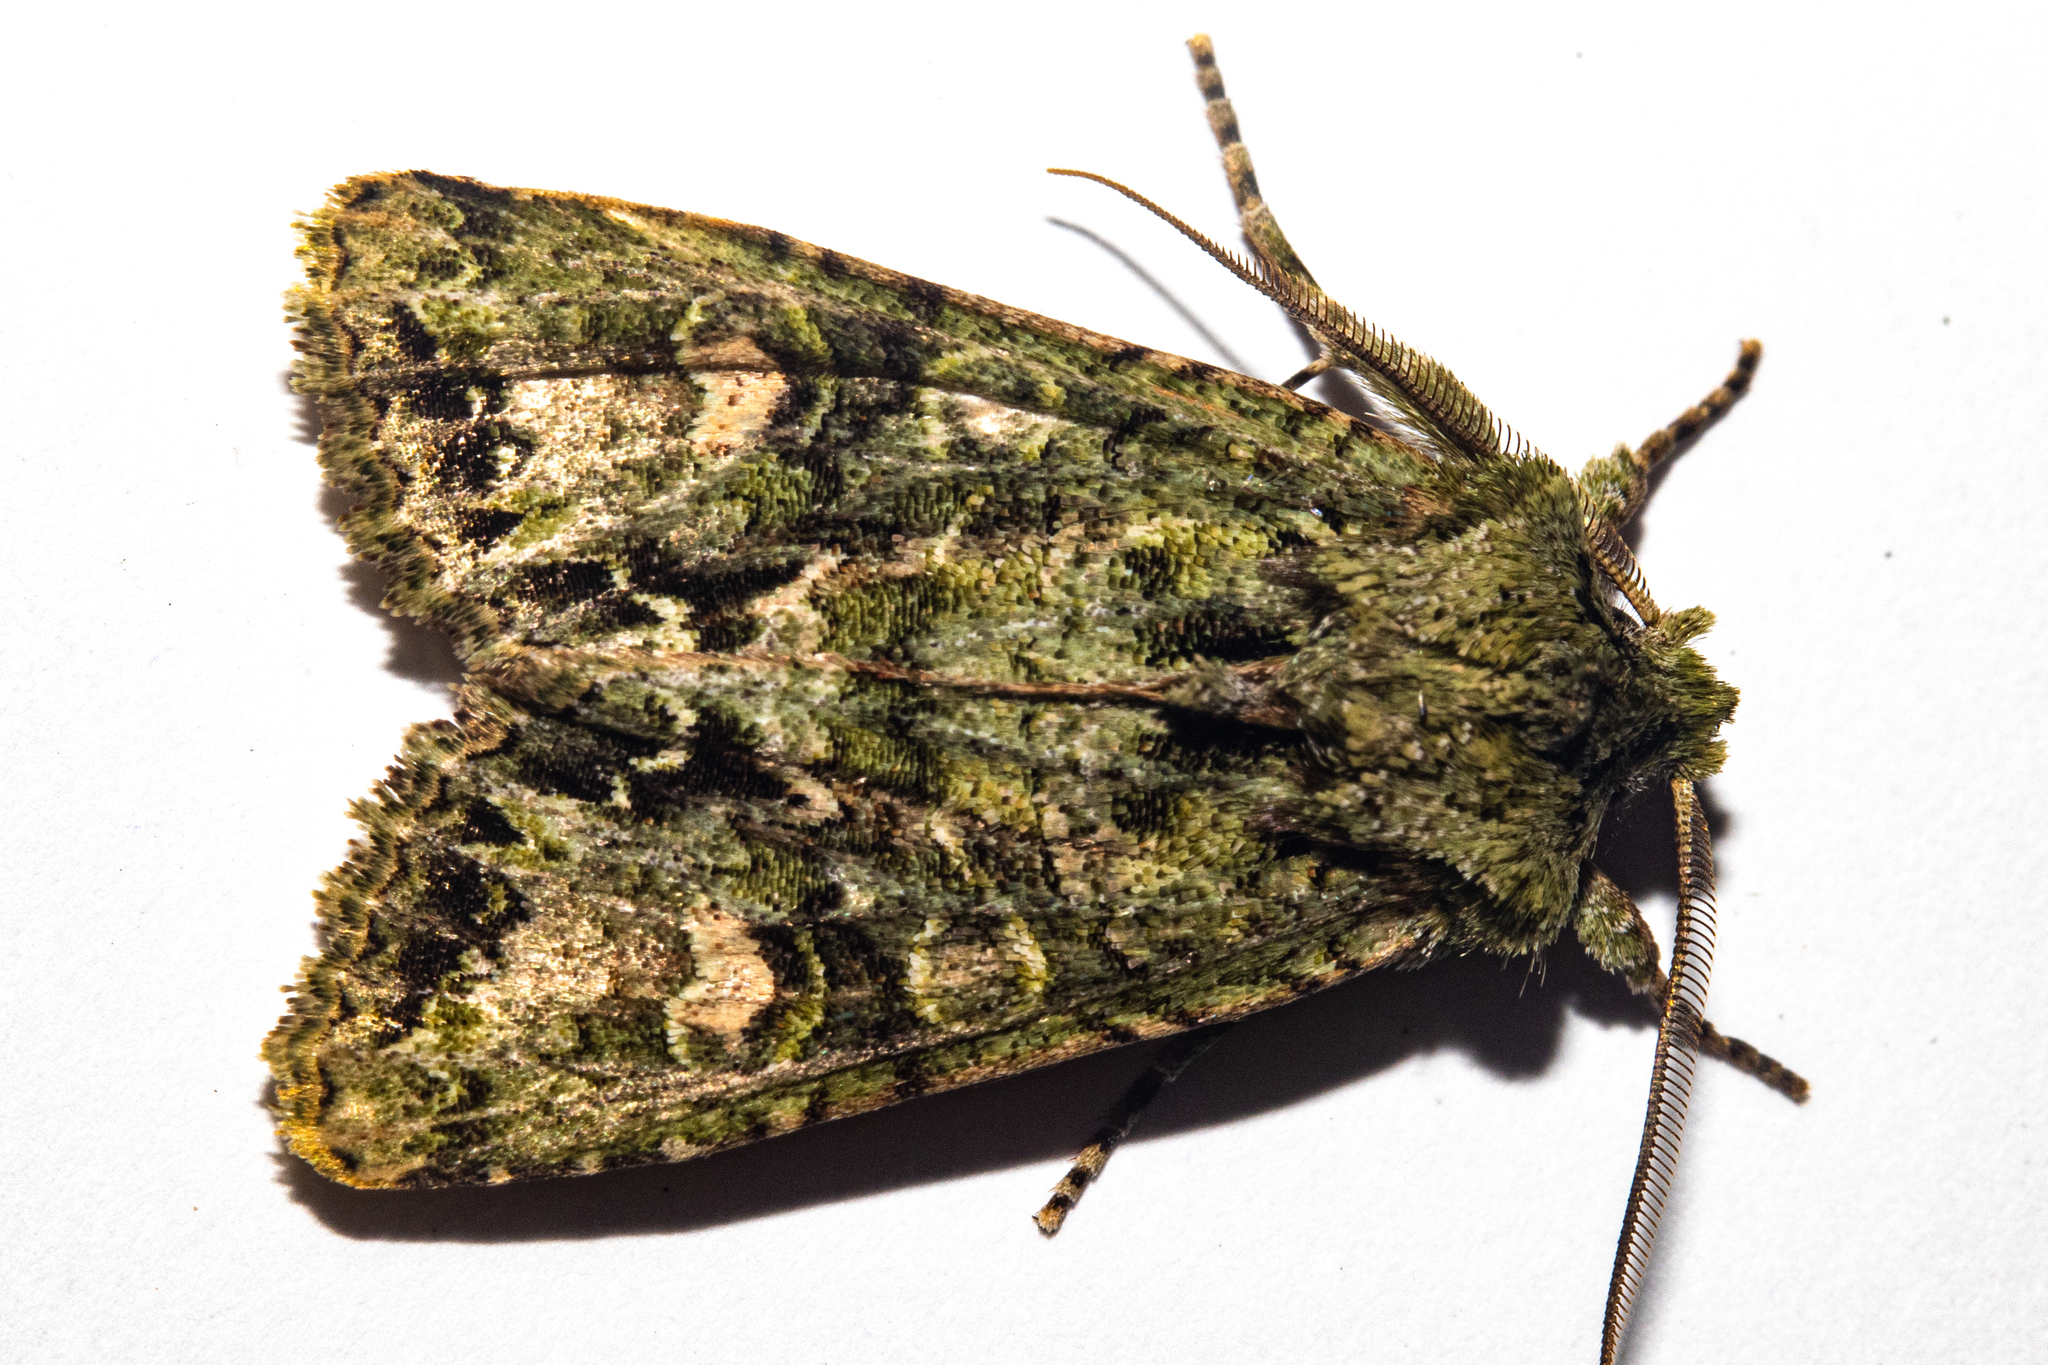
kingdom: Animalia
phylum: Arthropoda
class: Insecta
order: Lepidoptera
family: Noctuidae
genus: Ichneutica
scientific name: Ichneutica
